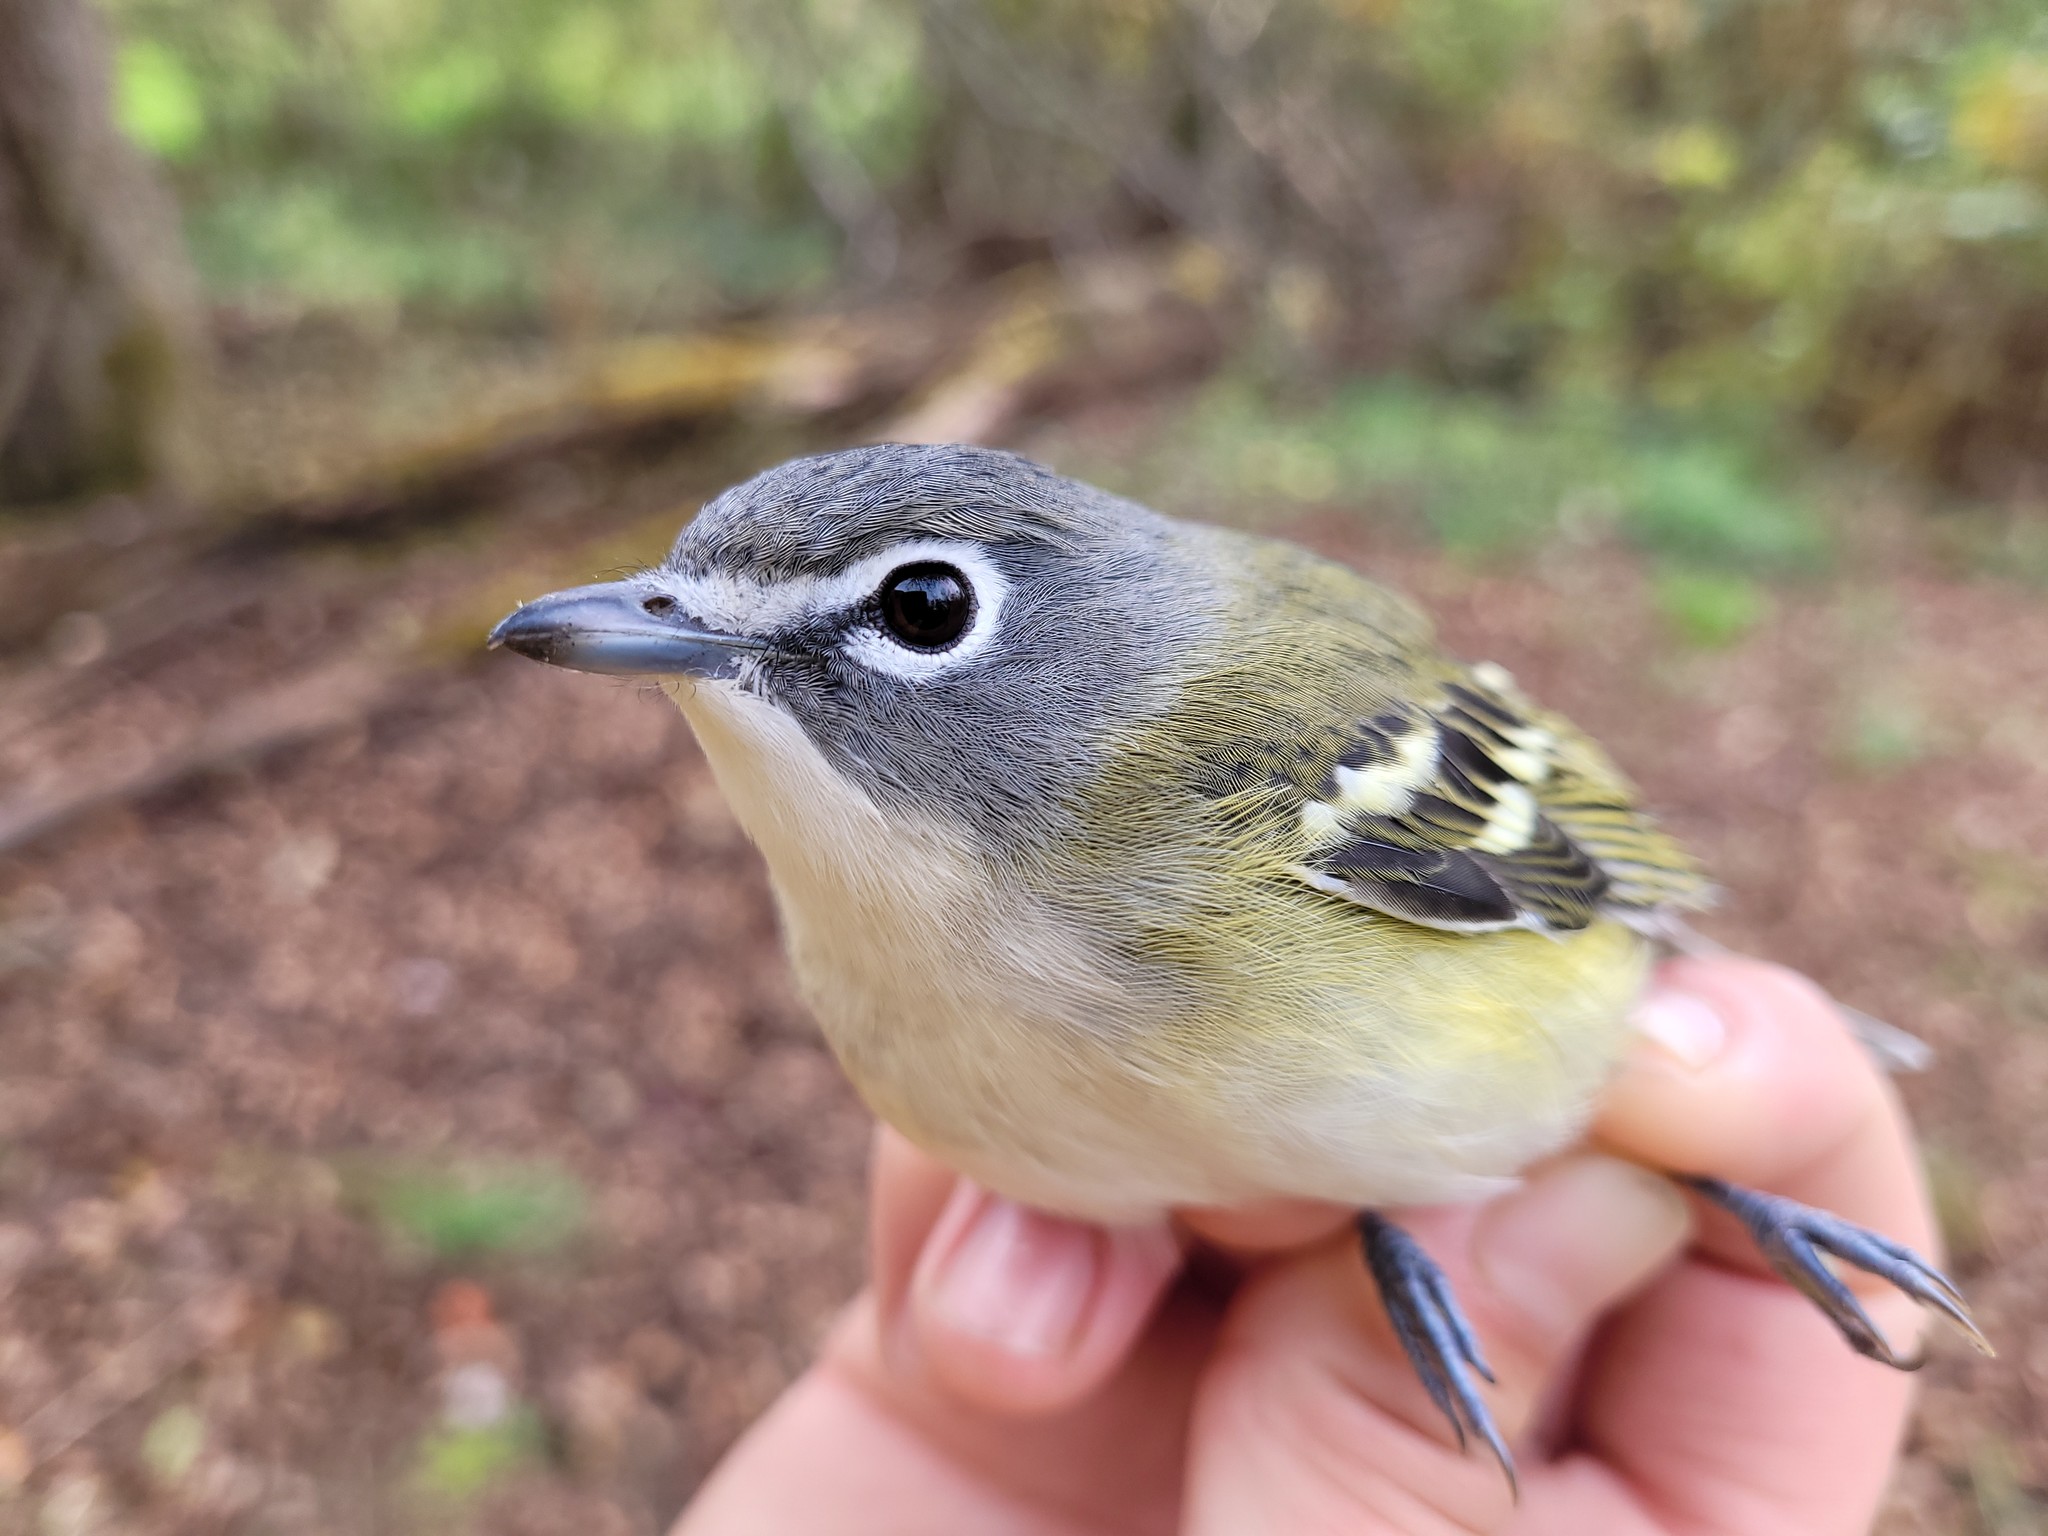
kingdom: Animalia
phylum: Chordata
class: Aves
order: Passeriformes
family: Vireonidae
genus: Vireo
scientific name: Vireo solitarius
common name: Blue-headed vireo
